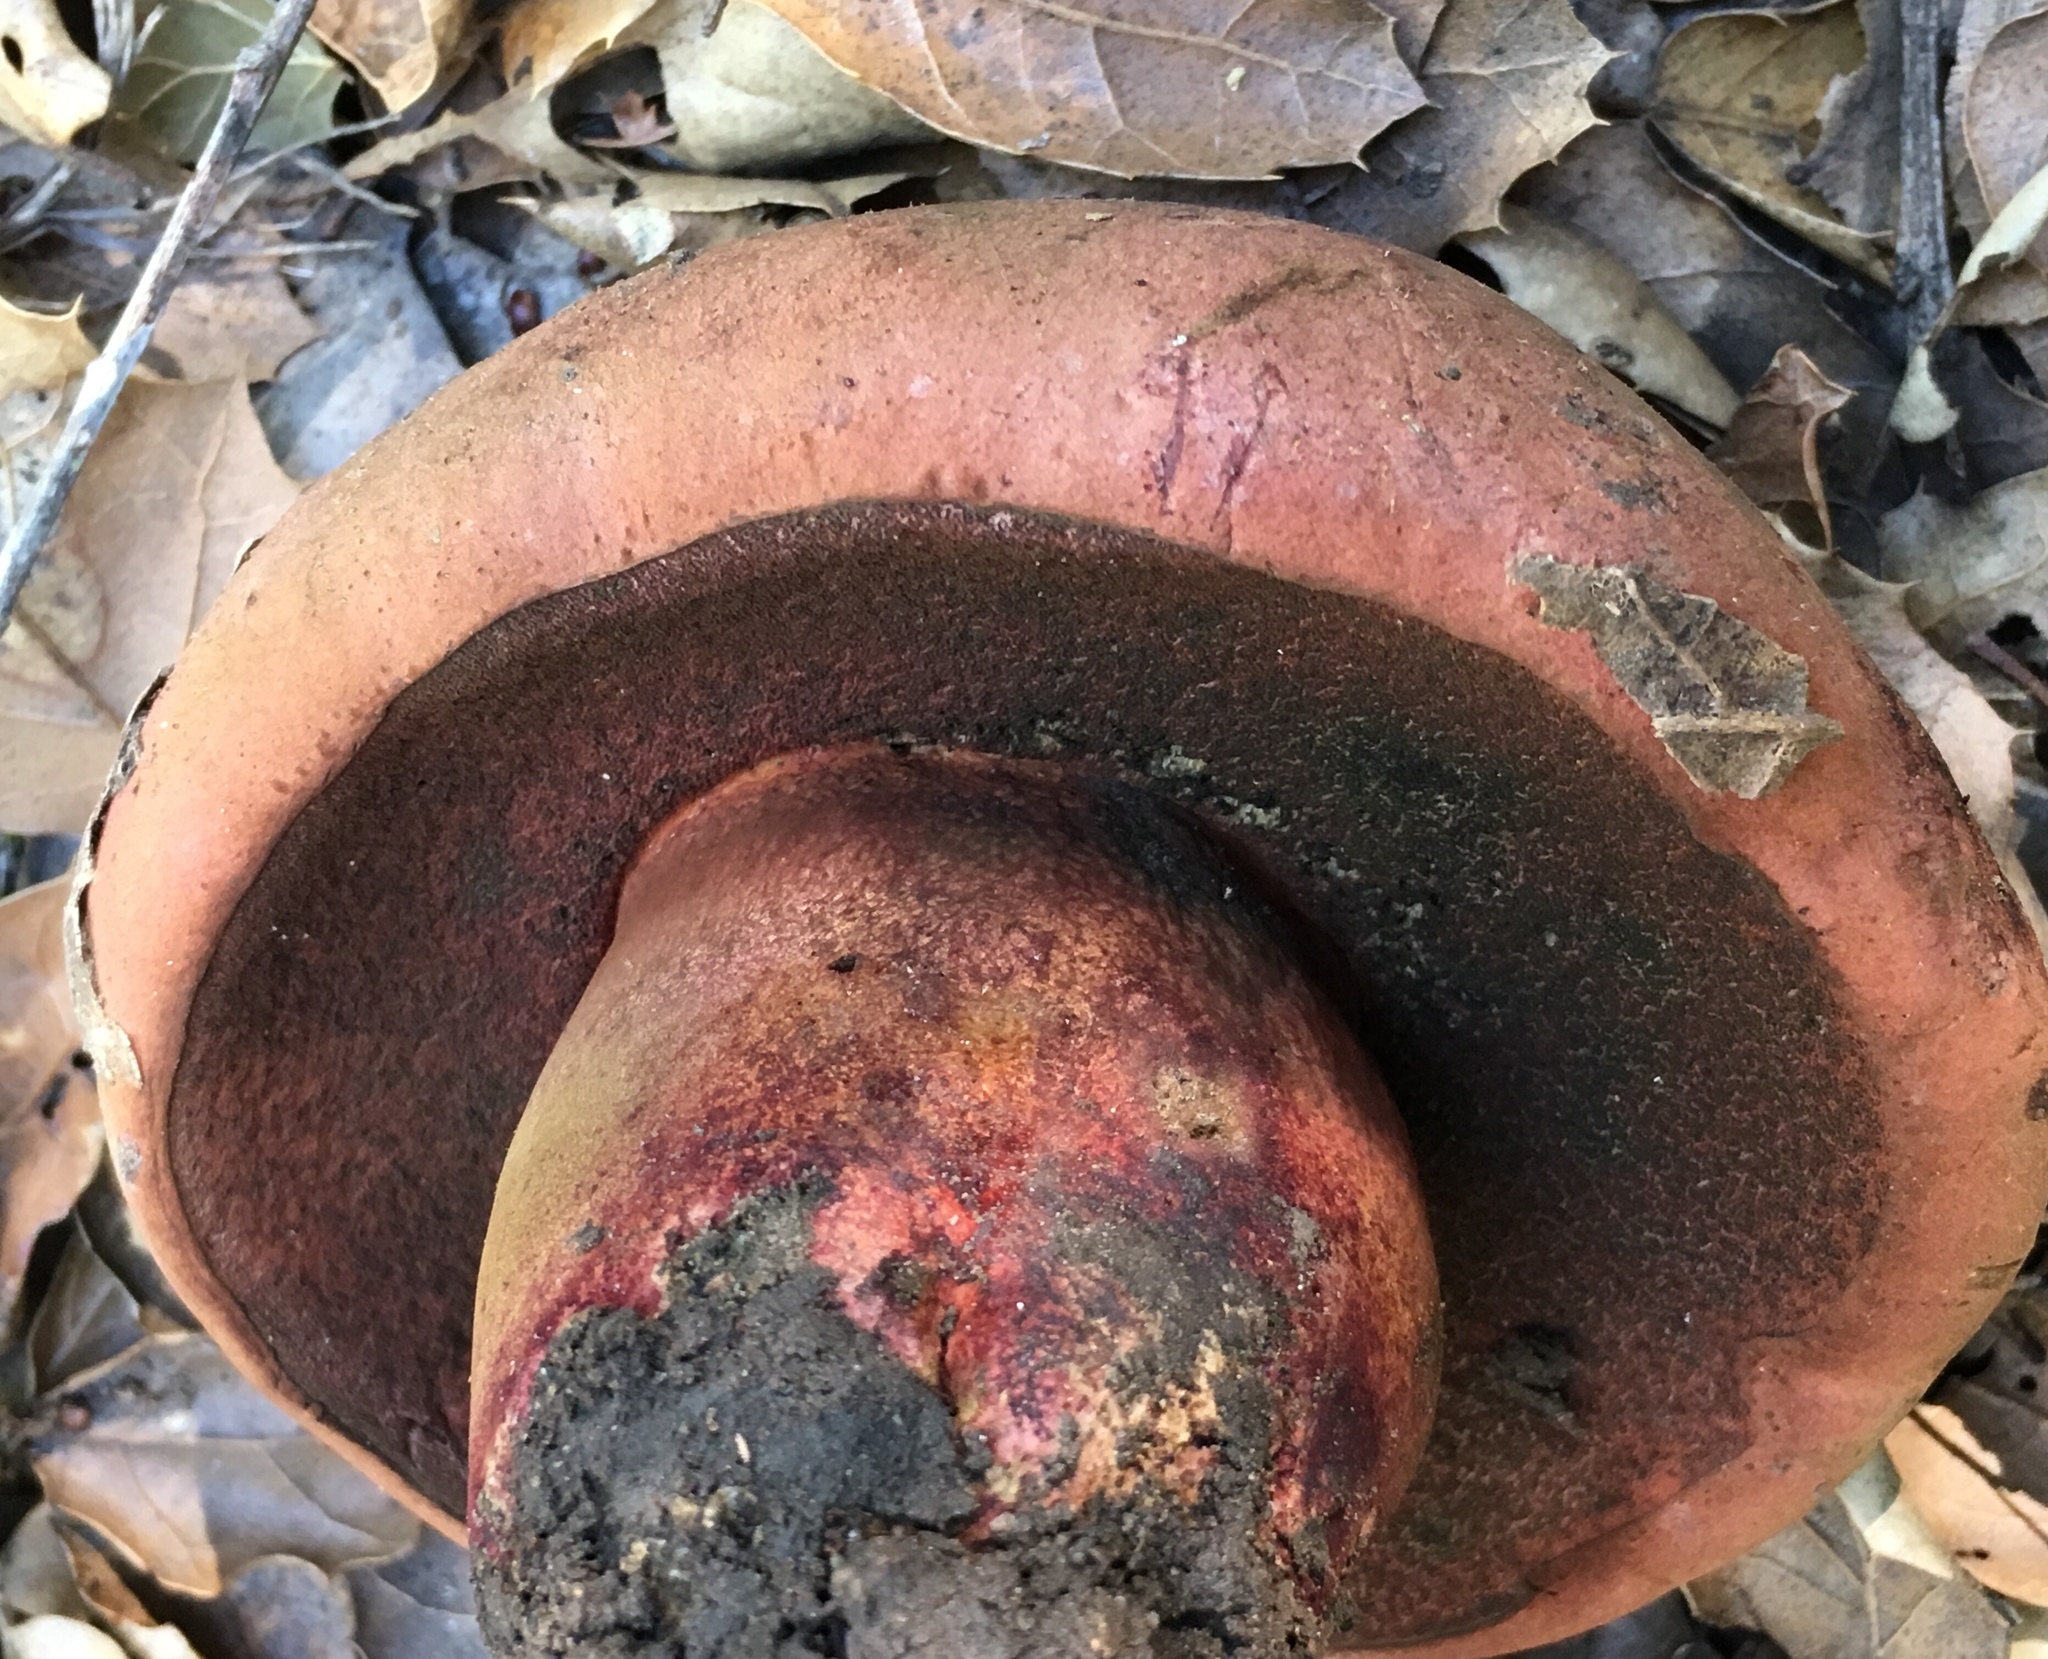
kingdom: Fungi
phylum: Basidiomycota
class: Agaricomycetes
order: Boletales
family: Boletaceae
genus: Suillellus
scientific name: Suillellus amygdalinus
